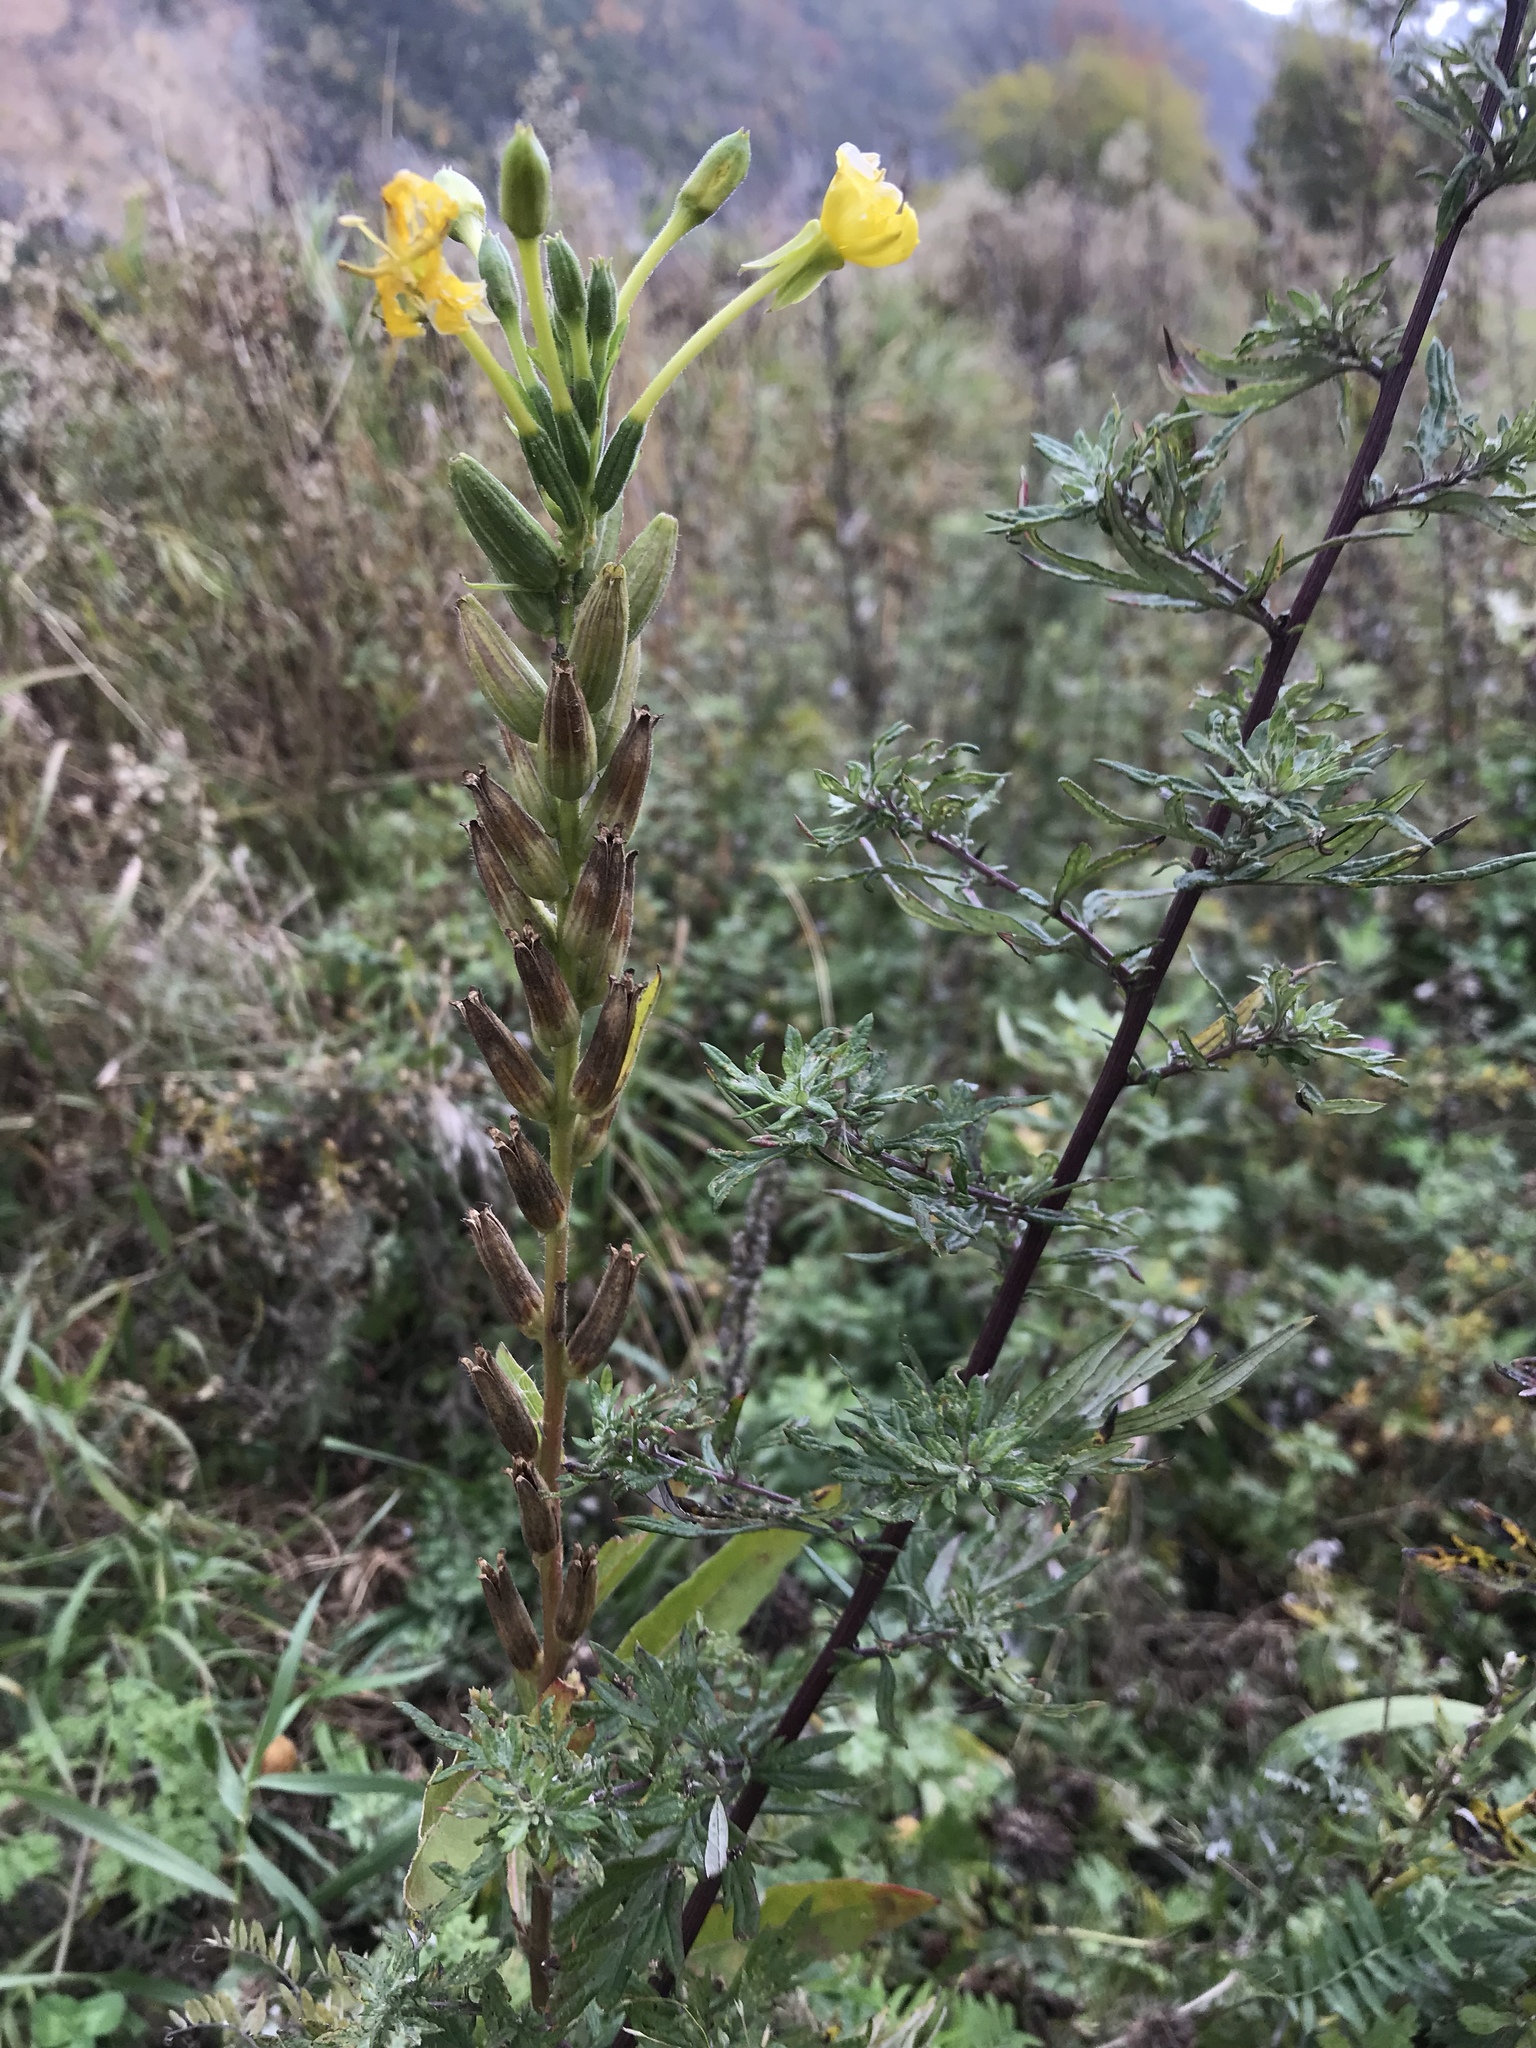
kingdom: Plantae
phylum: Tracheophyta
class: Magnoliopsida
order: Myrtales
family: Onagraceae
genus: Oenothera
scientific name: Oenothera biennis
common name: Common evening-primrose
